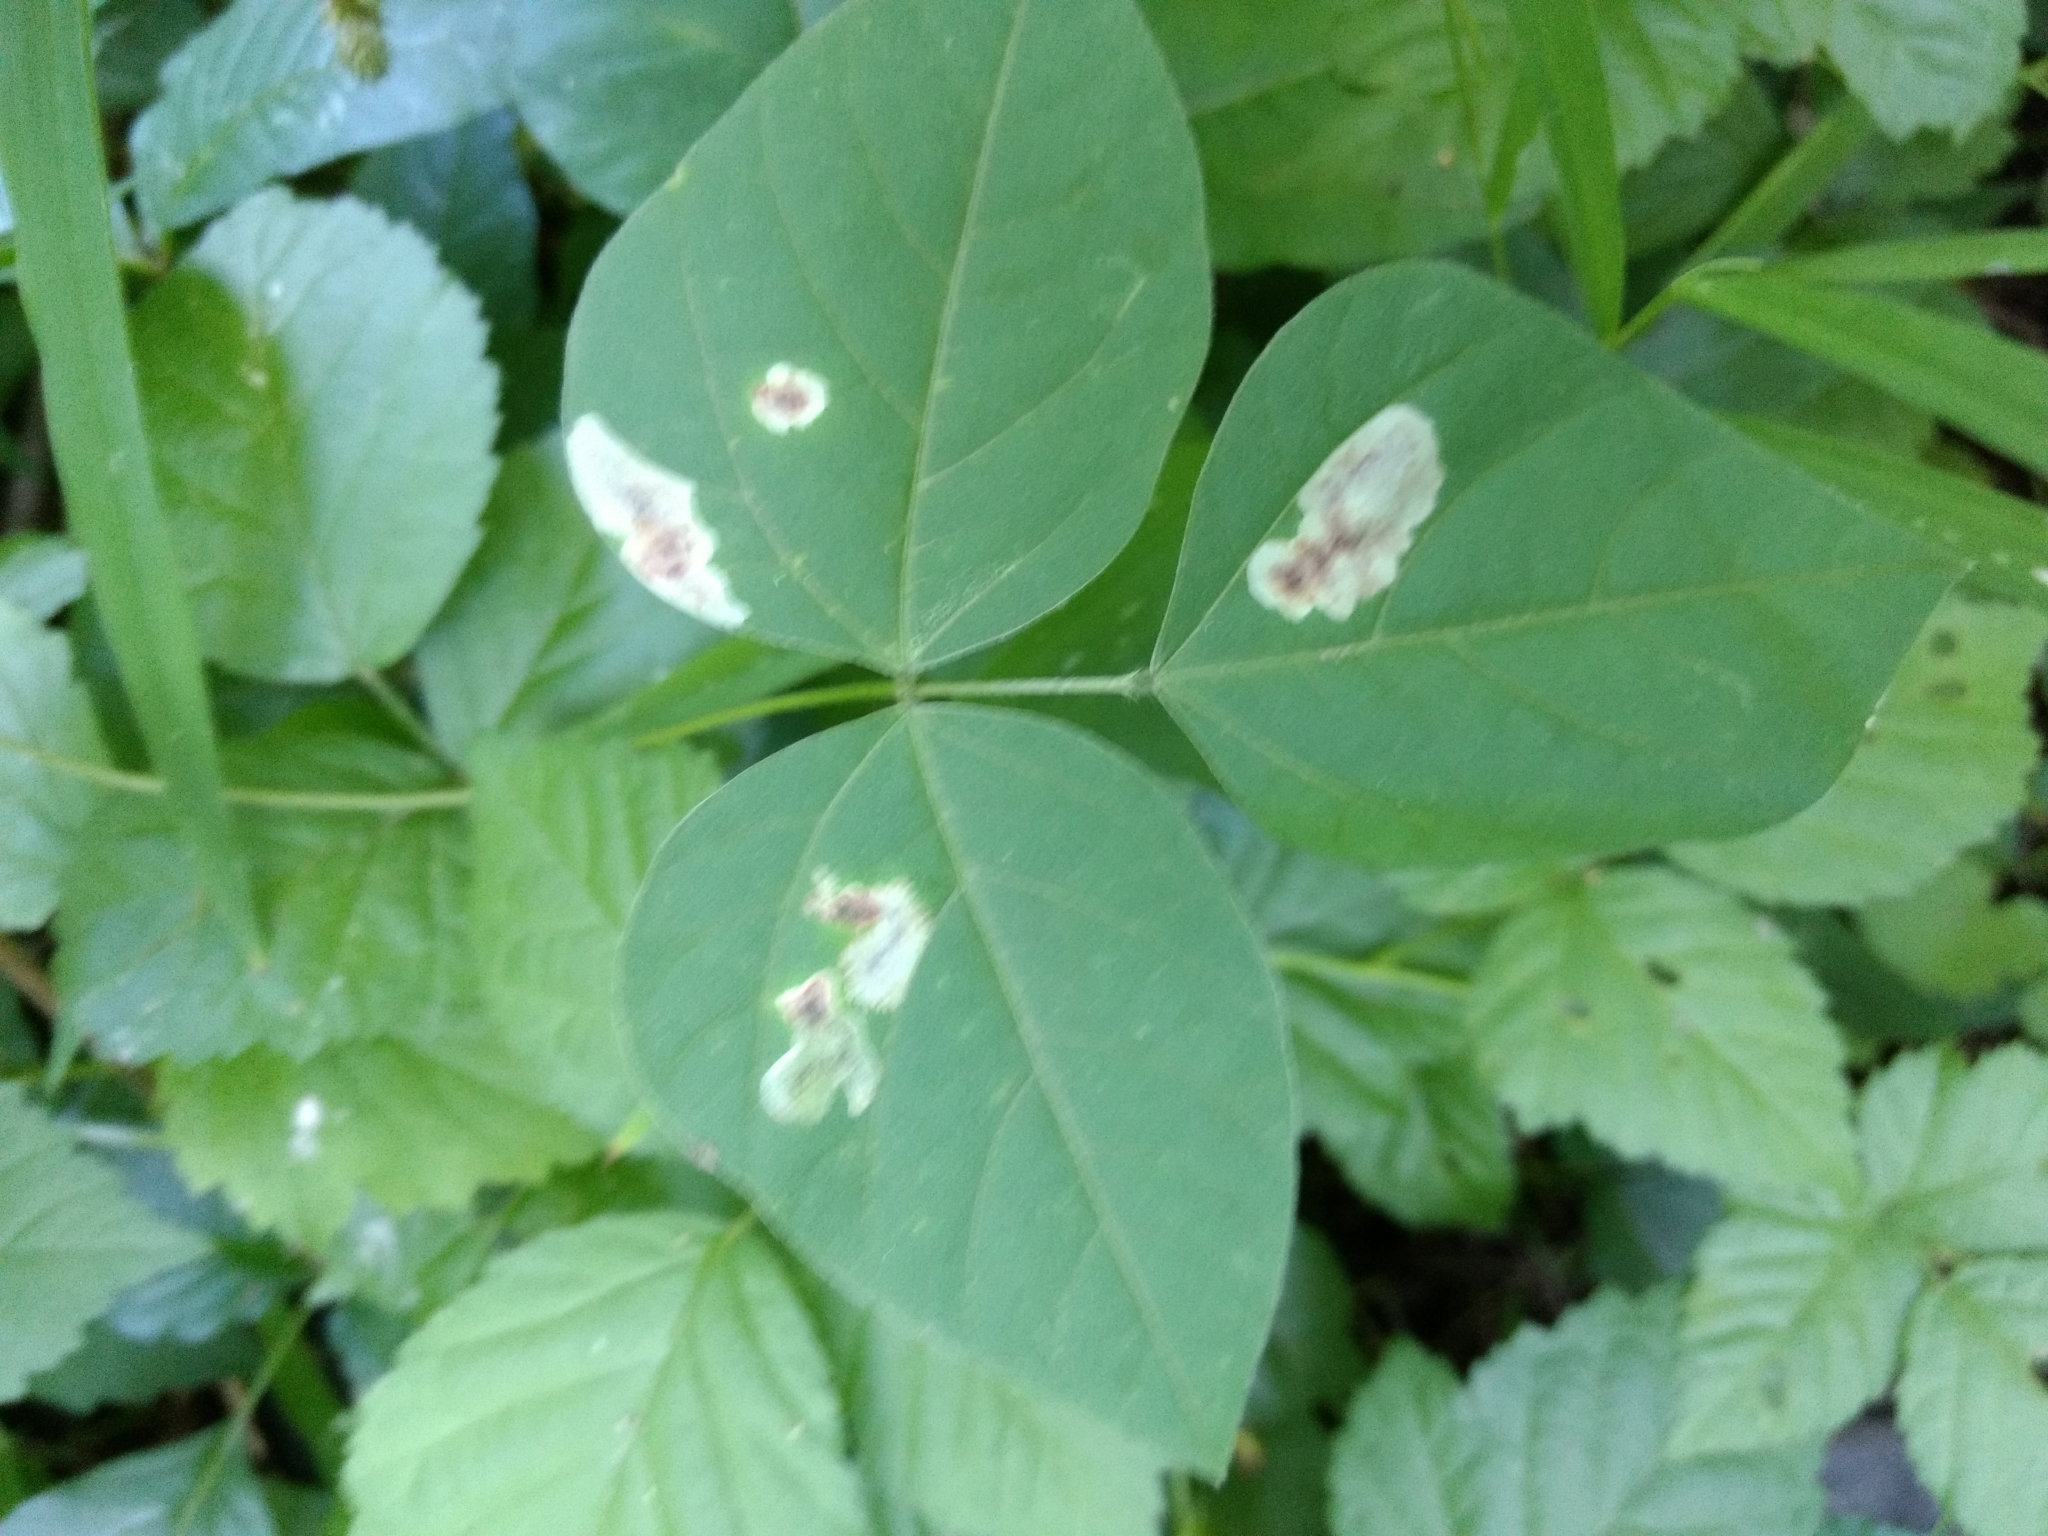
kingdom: Animalia
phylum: Arthropoda
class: Insecta
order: Lepidoptera
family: Gracillariidae
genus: Leucanthiza
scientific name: Leucanthiza amphicarpeaefoliella
